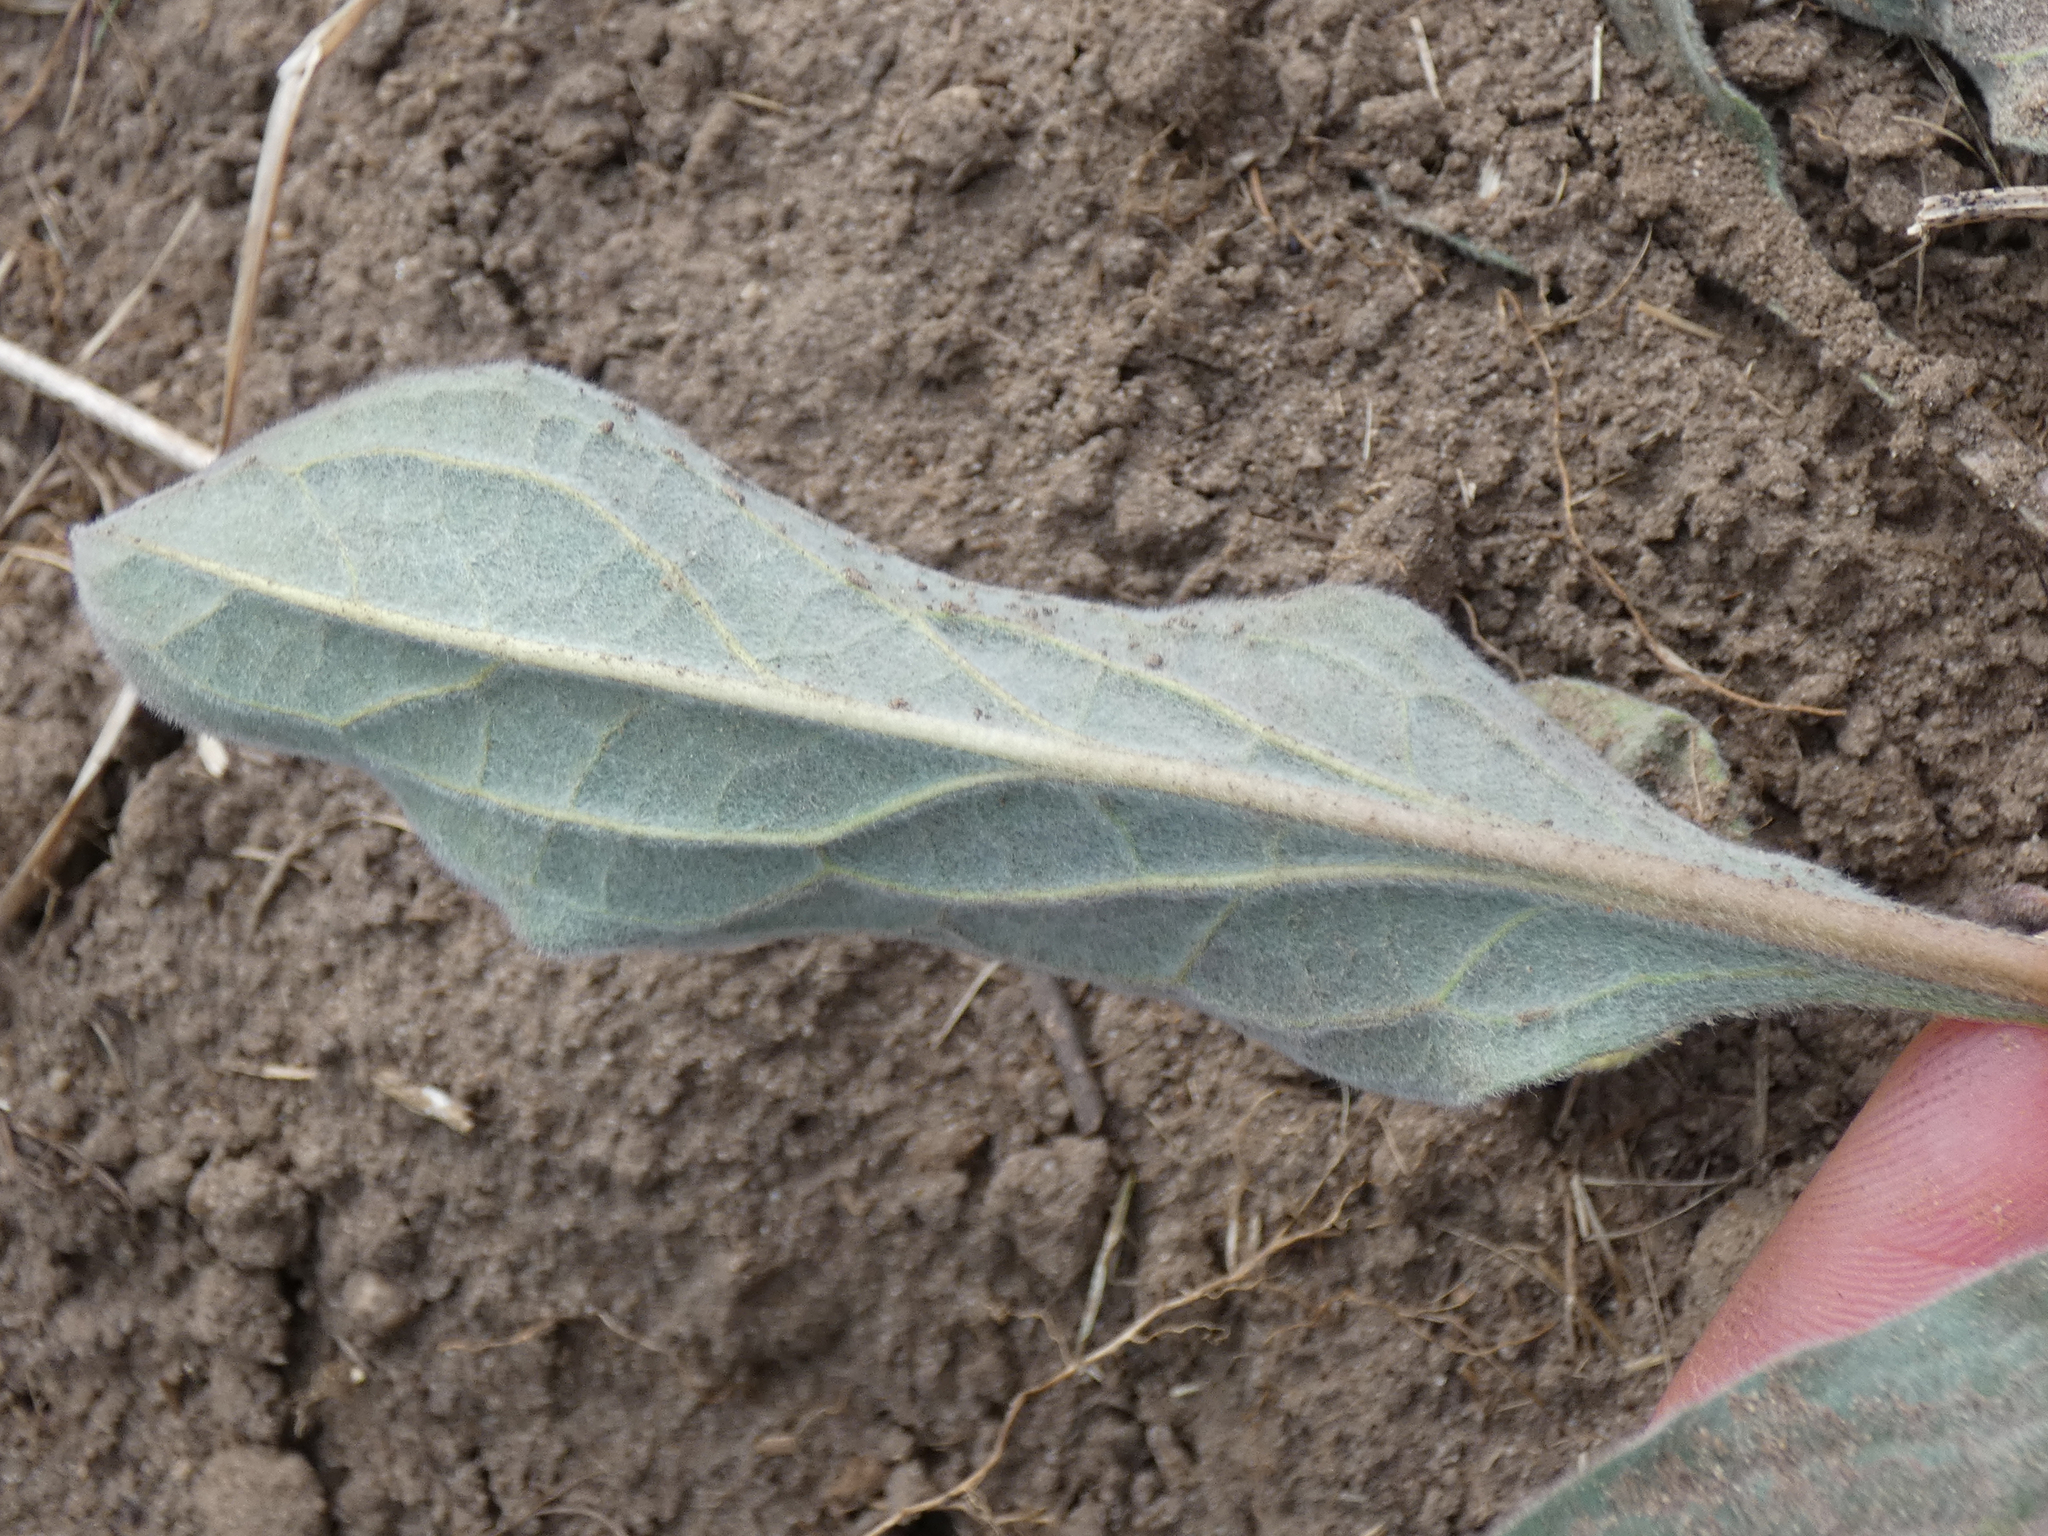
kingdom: Plantae
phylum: Tracheophyta
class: Magnoliopsida
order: Boraginales
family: Boraginaceae
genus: Cynoglossum
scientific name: Cynoglossum officinale
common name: Hound's-tongue
